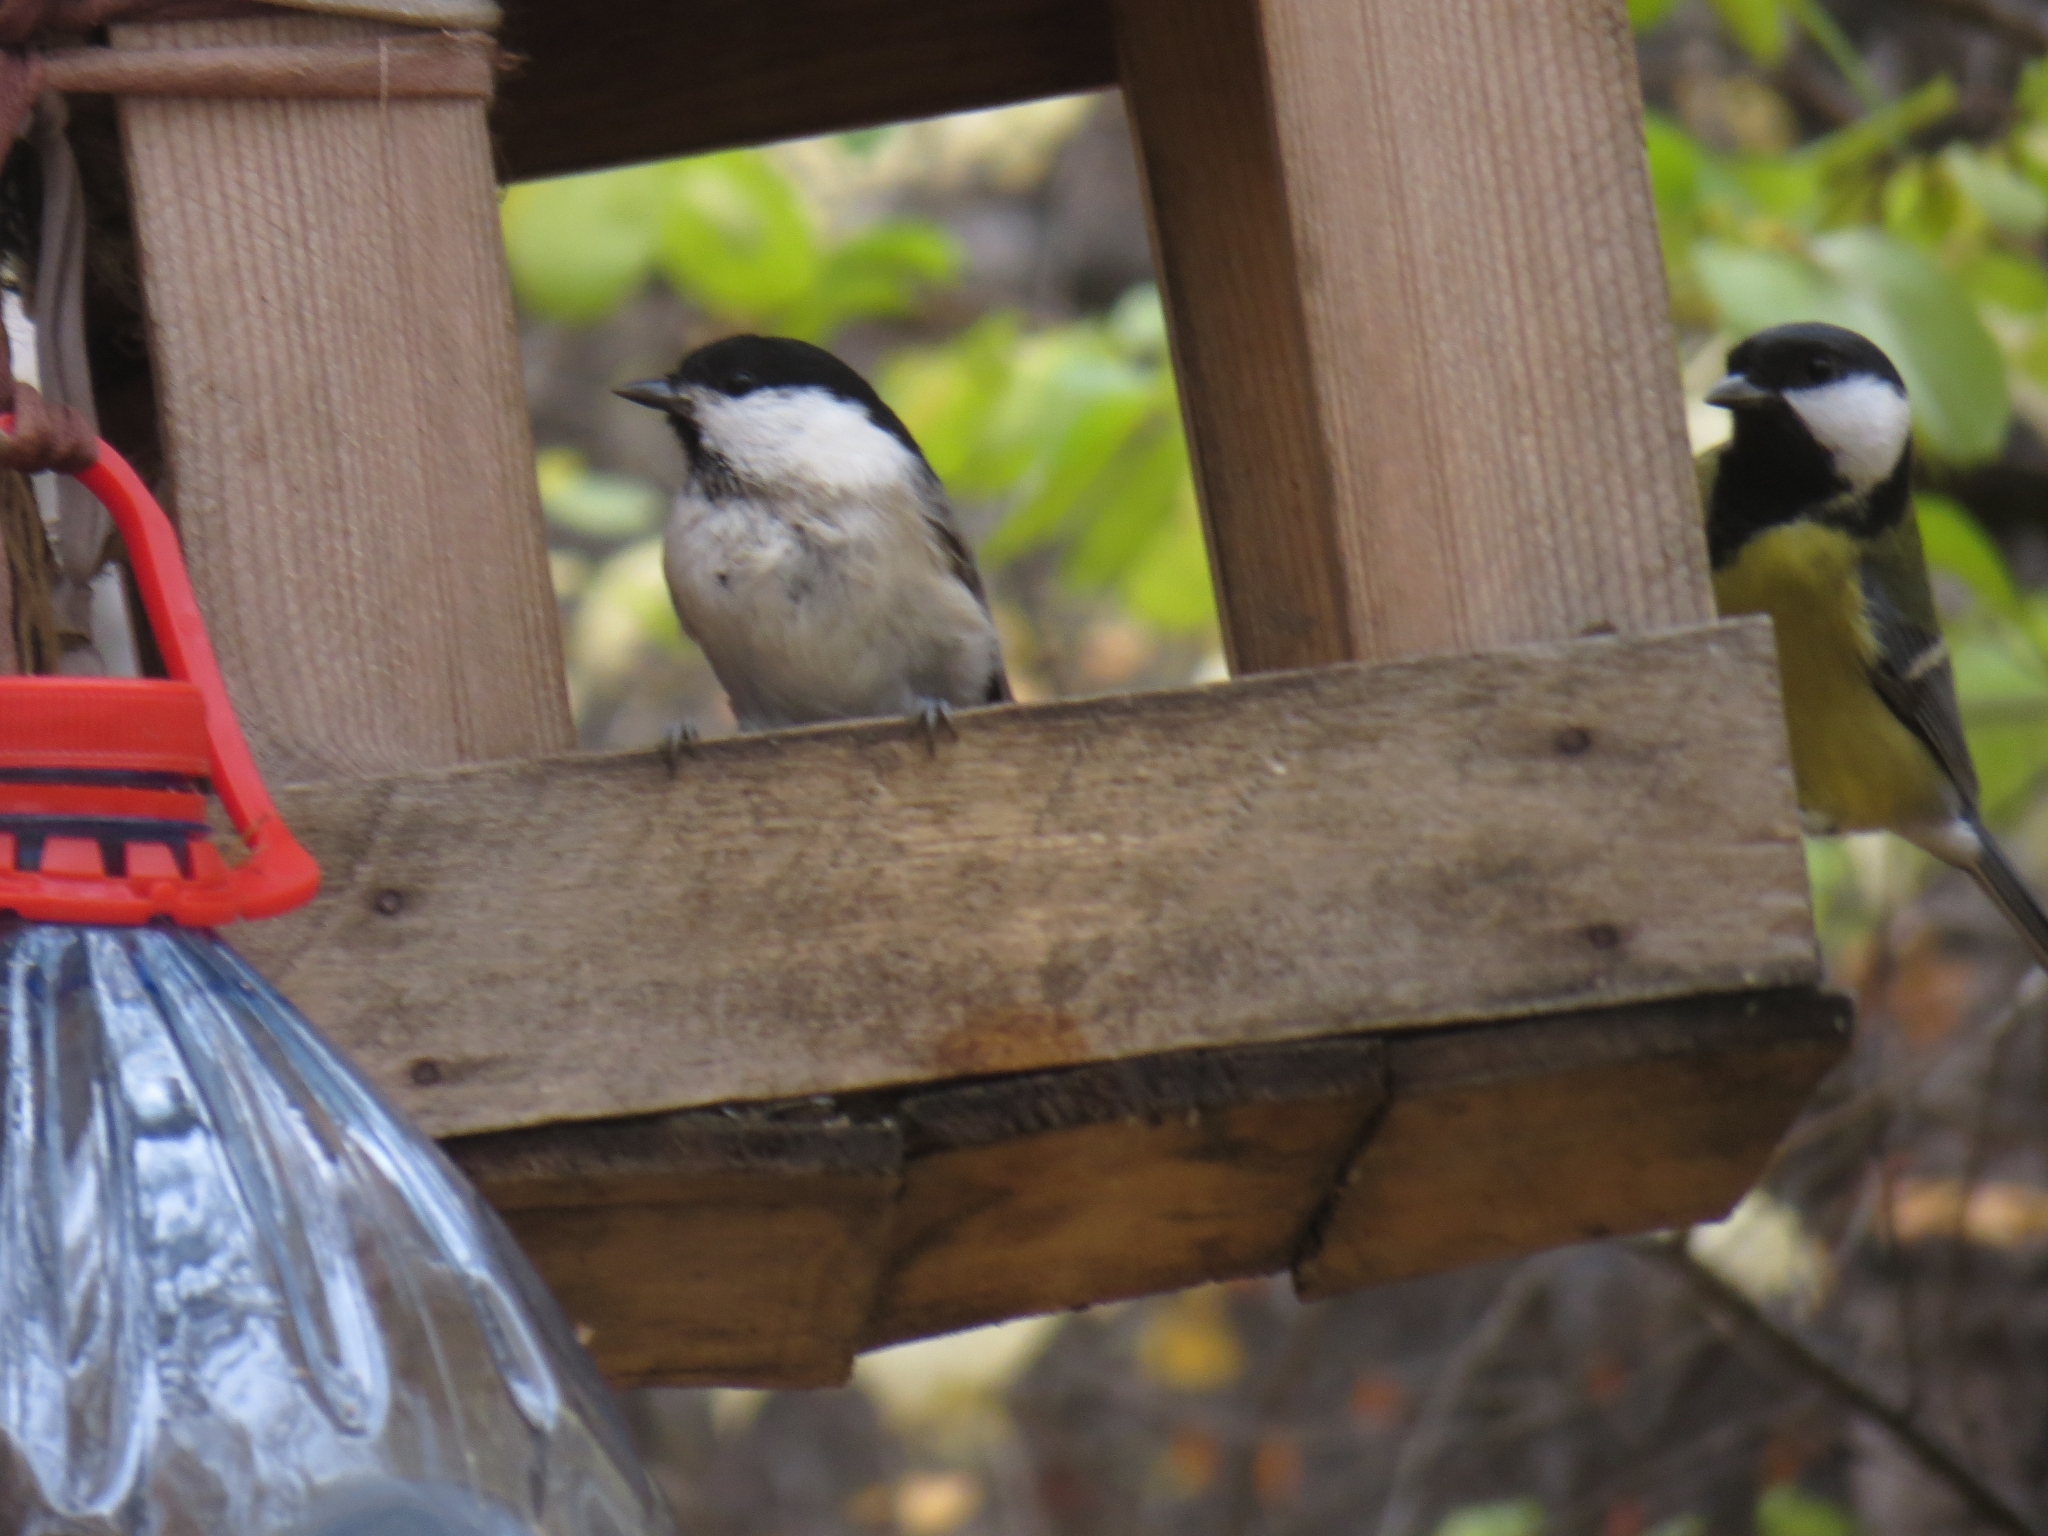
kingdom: Animalia
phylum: Chordata
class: Aves
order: Passeriformes
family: Paridae
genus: Poecile
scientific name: Poecile montanus
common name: Willow tit
